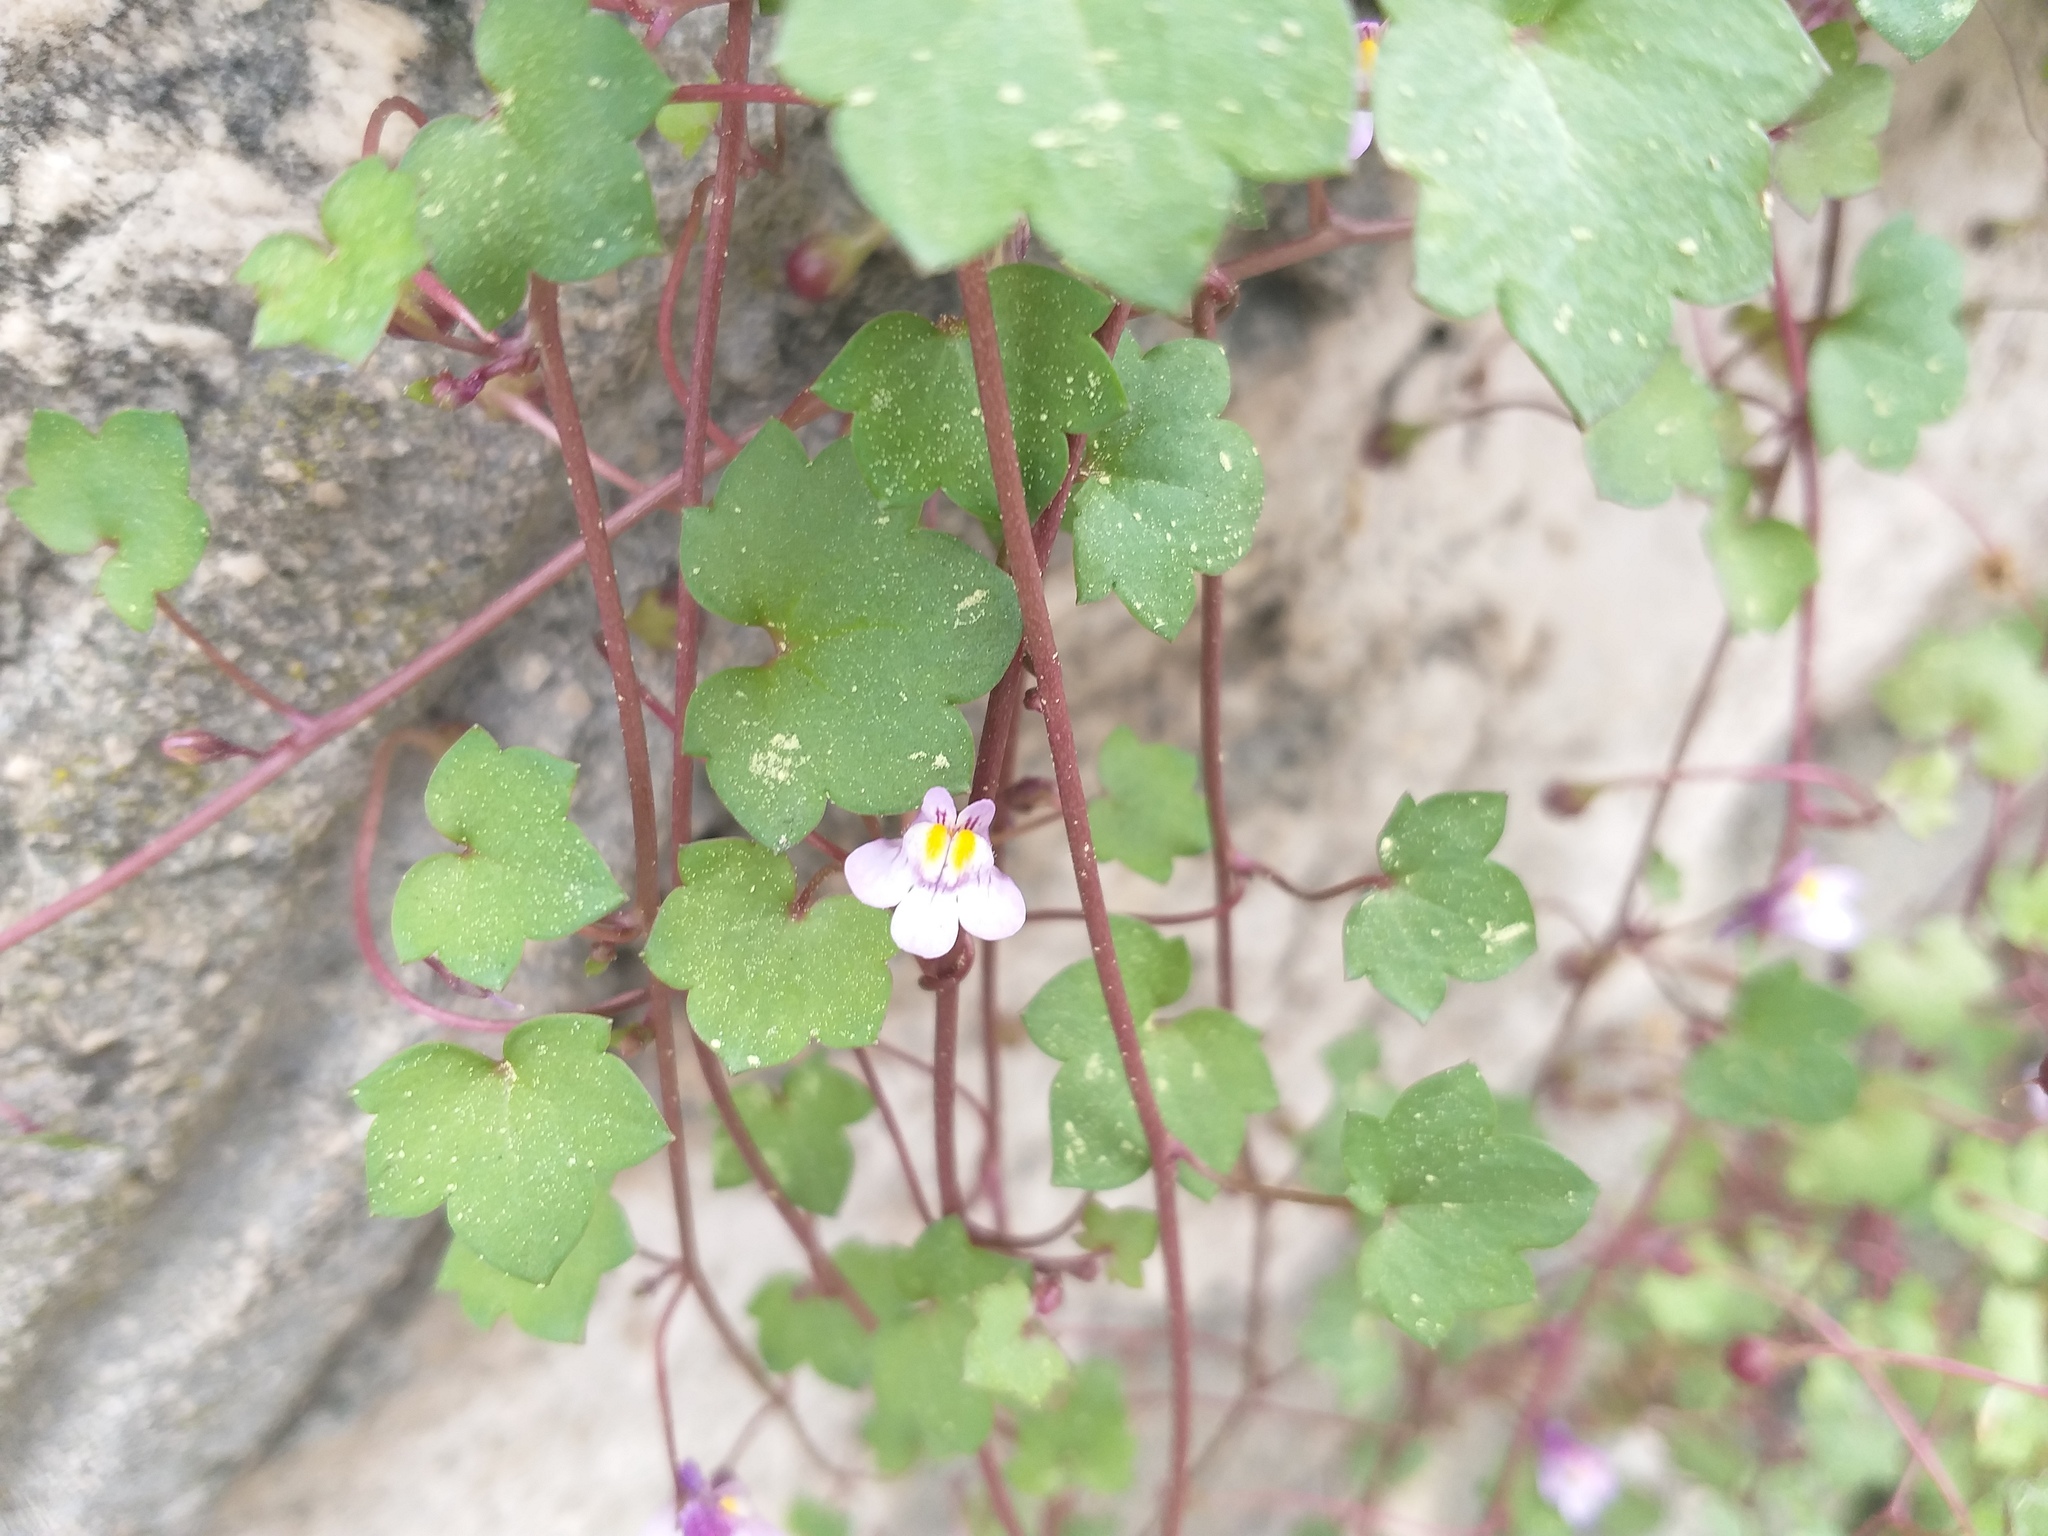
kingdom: Plantae
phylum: Tracheophyta
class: Magnoliopsida
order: Lamiales
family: Plantaginaceae
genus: Cymbalaria
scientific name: Cymbalaria muralis
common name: Ivy-leaved toadflax
